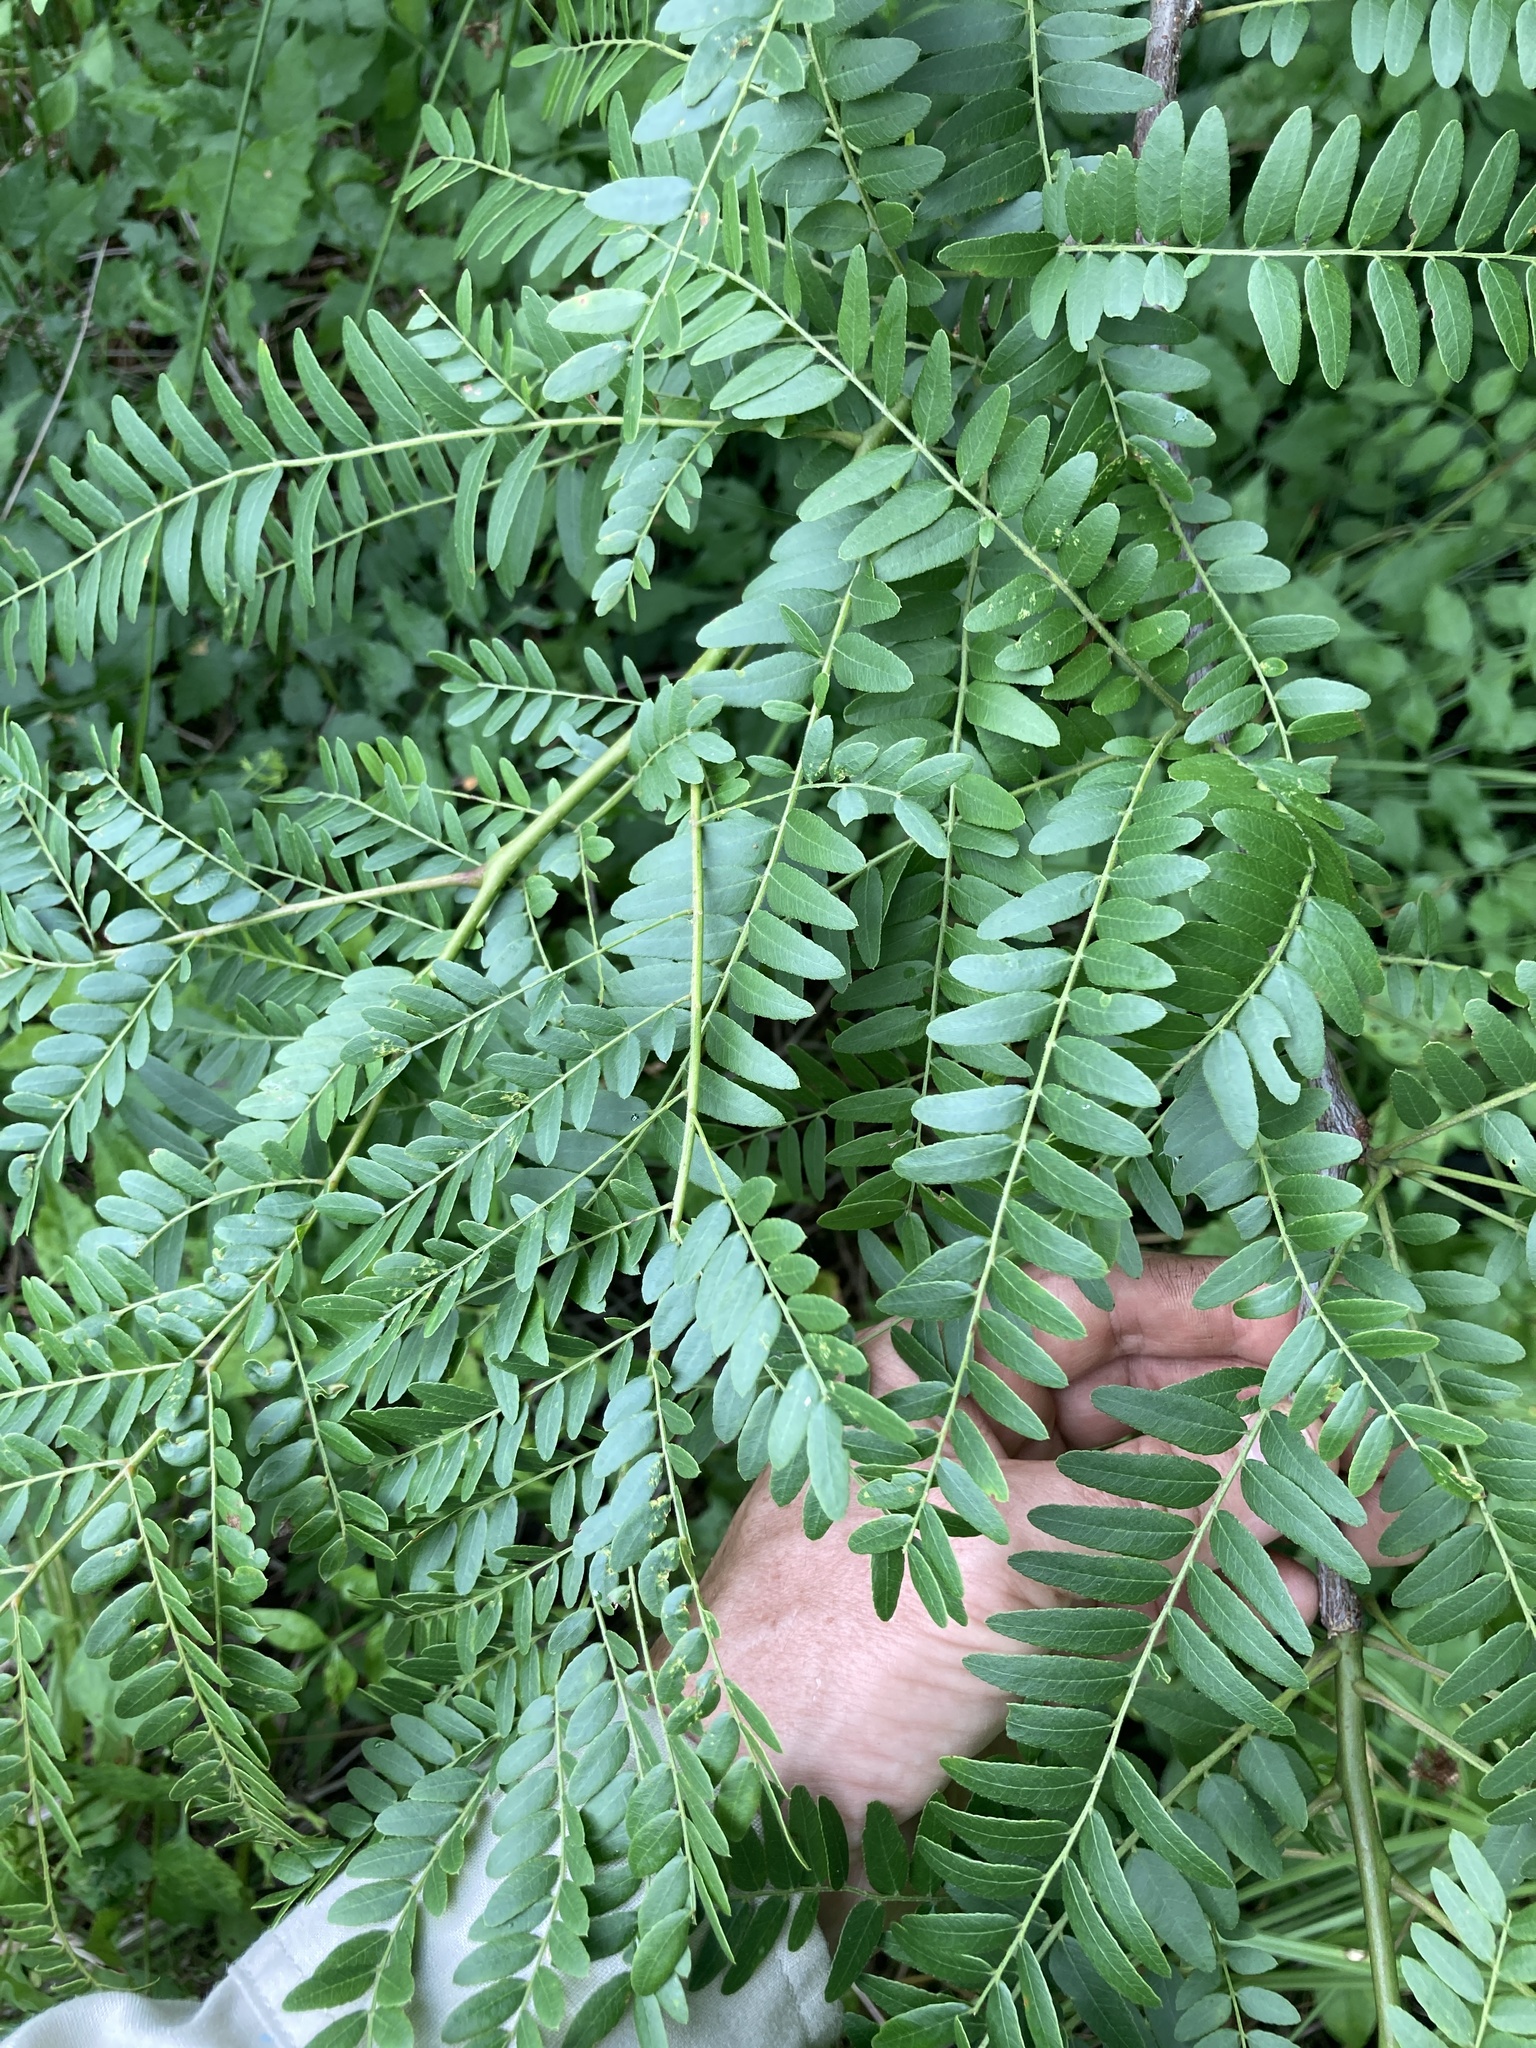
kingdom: Plantae
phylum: Tracheophyta
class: Magnoliopsida
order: Fabales
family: Fabaceae
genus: Gleditsia
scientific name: Gleditsia triacanthos
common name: Common honeylocust
